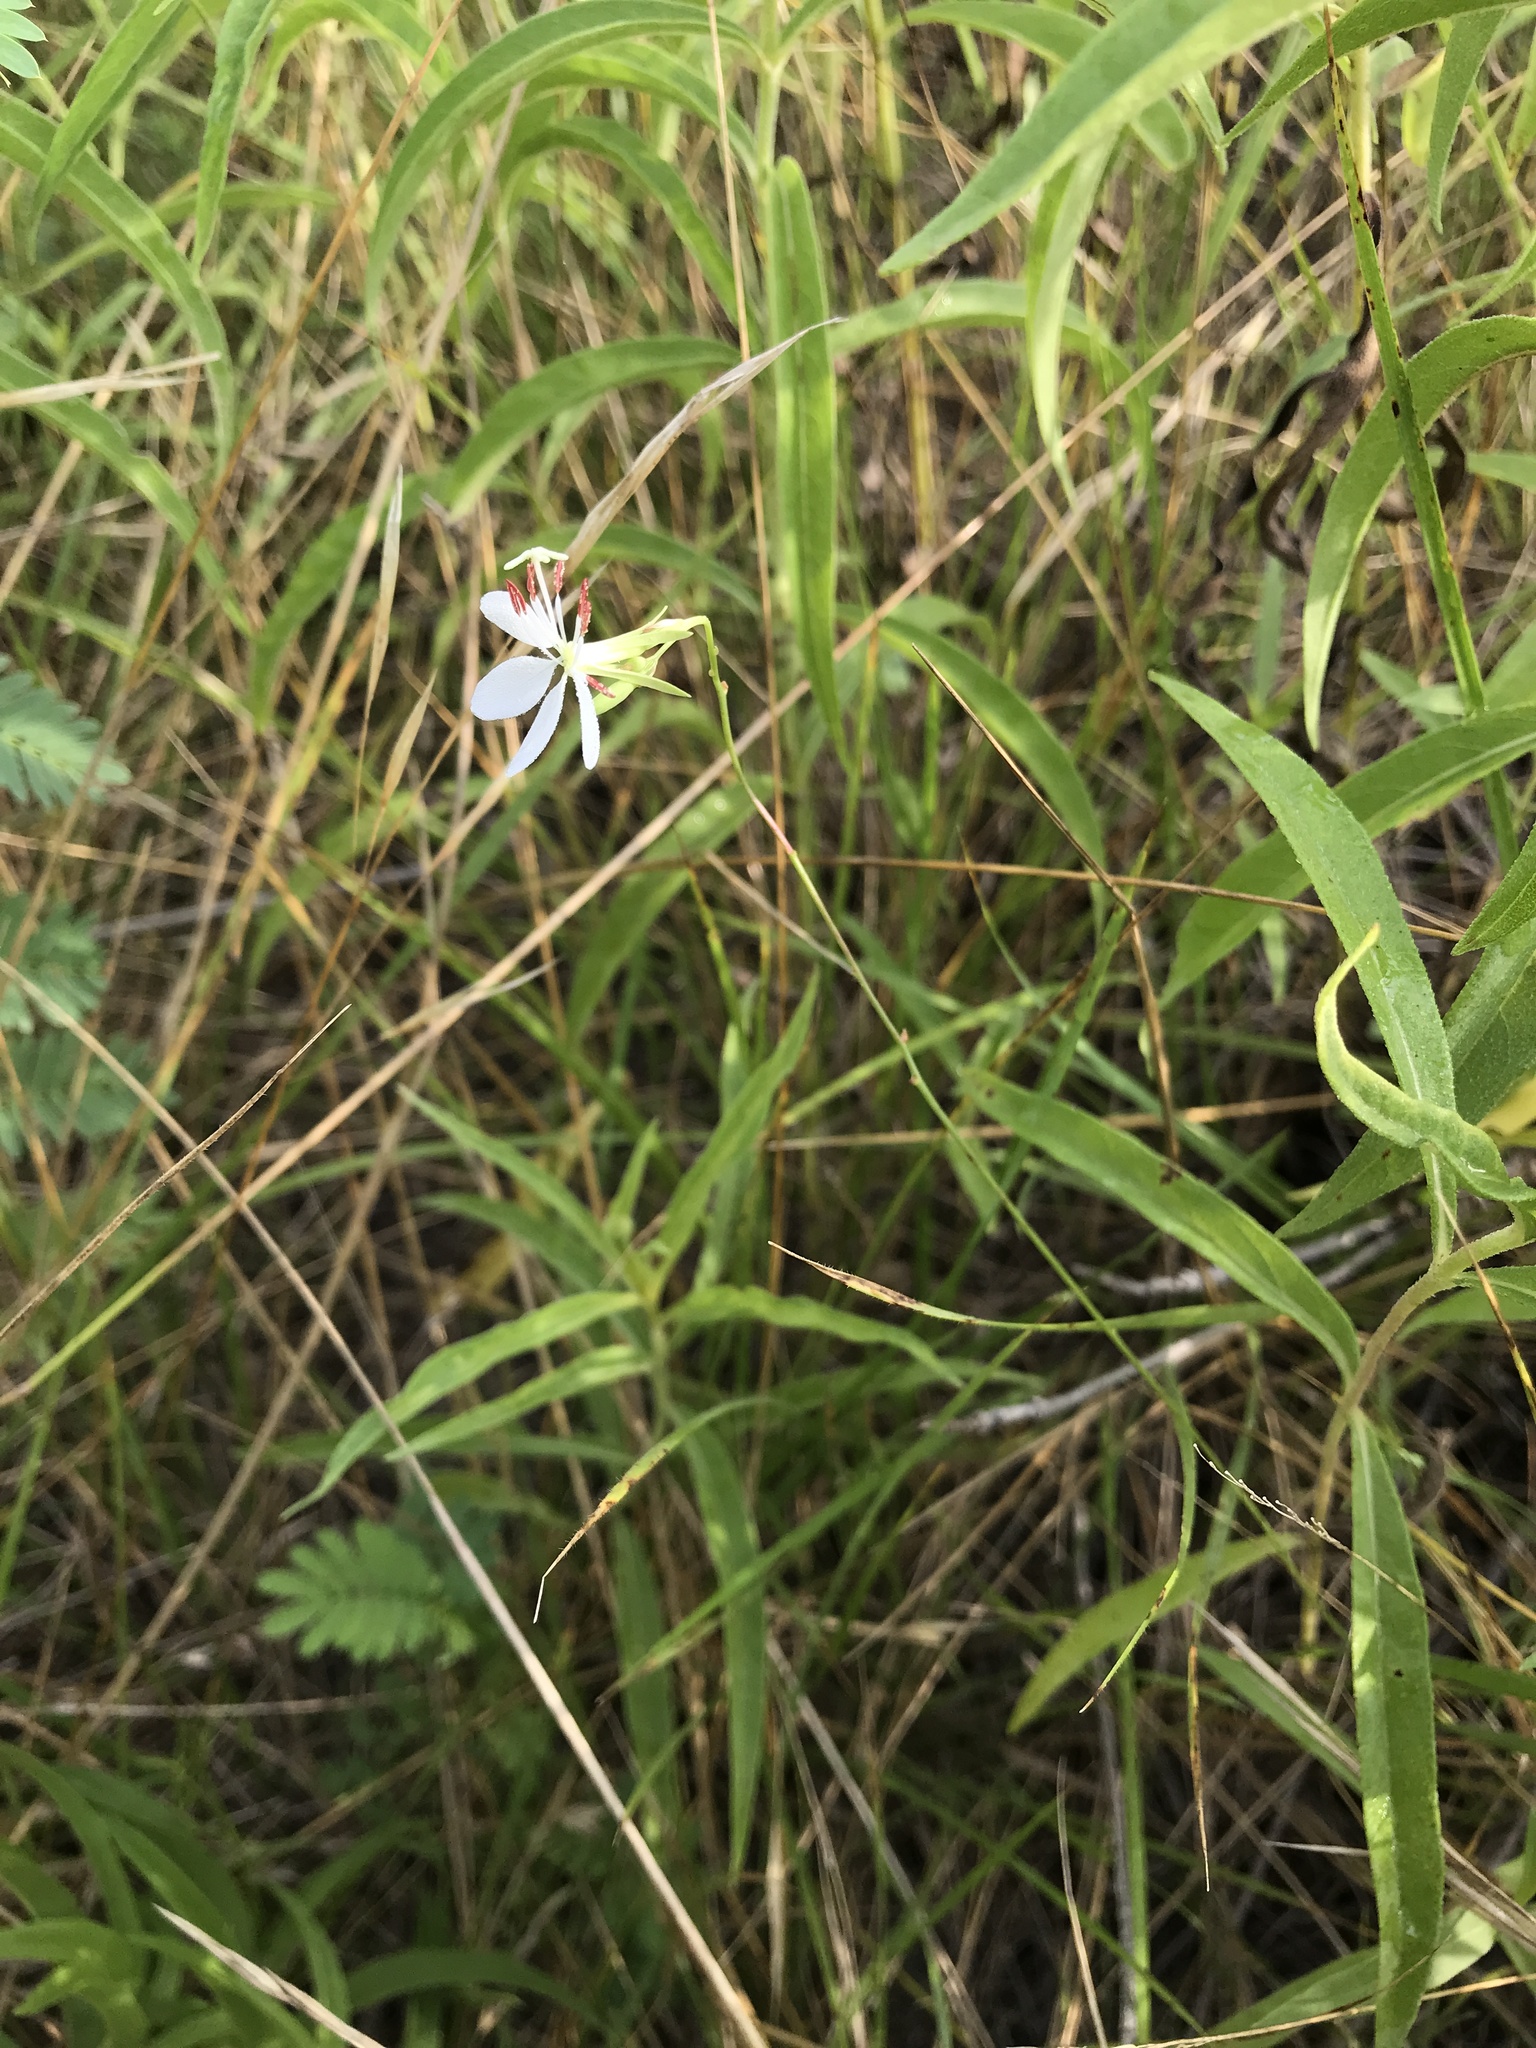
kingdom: Plantae
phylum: Tracheophyta
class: Magnoliopsida
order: Myrtales
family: Onagraceae
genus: Oenothera
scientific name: Oenothera lindheimeri
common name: Lindheimer's beeblossom
